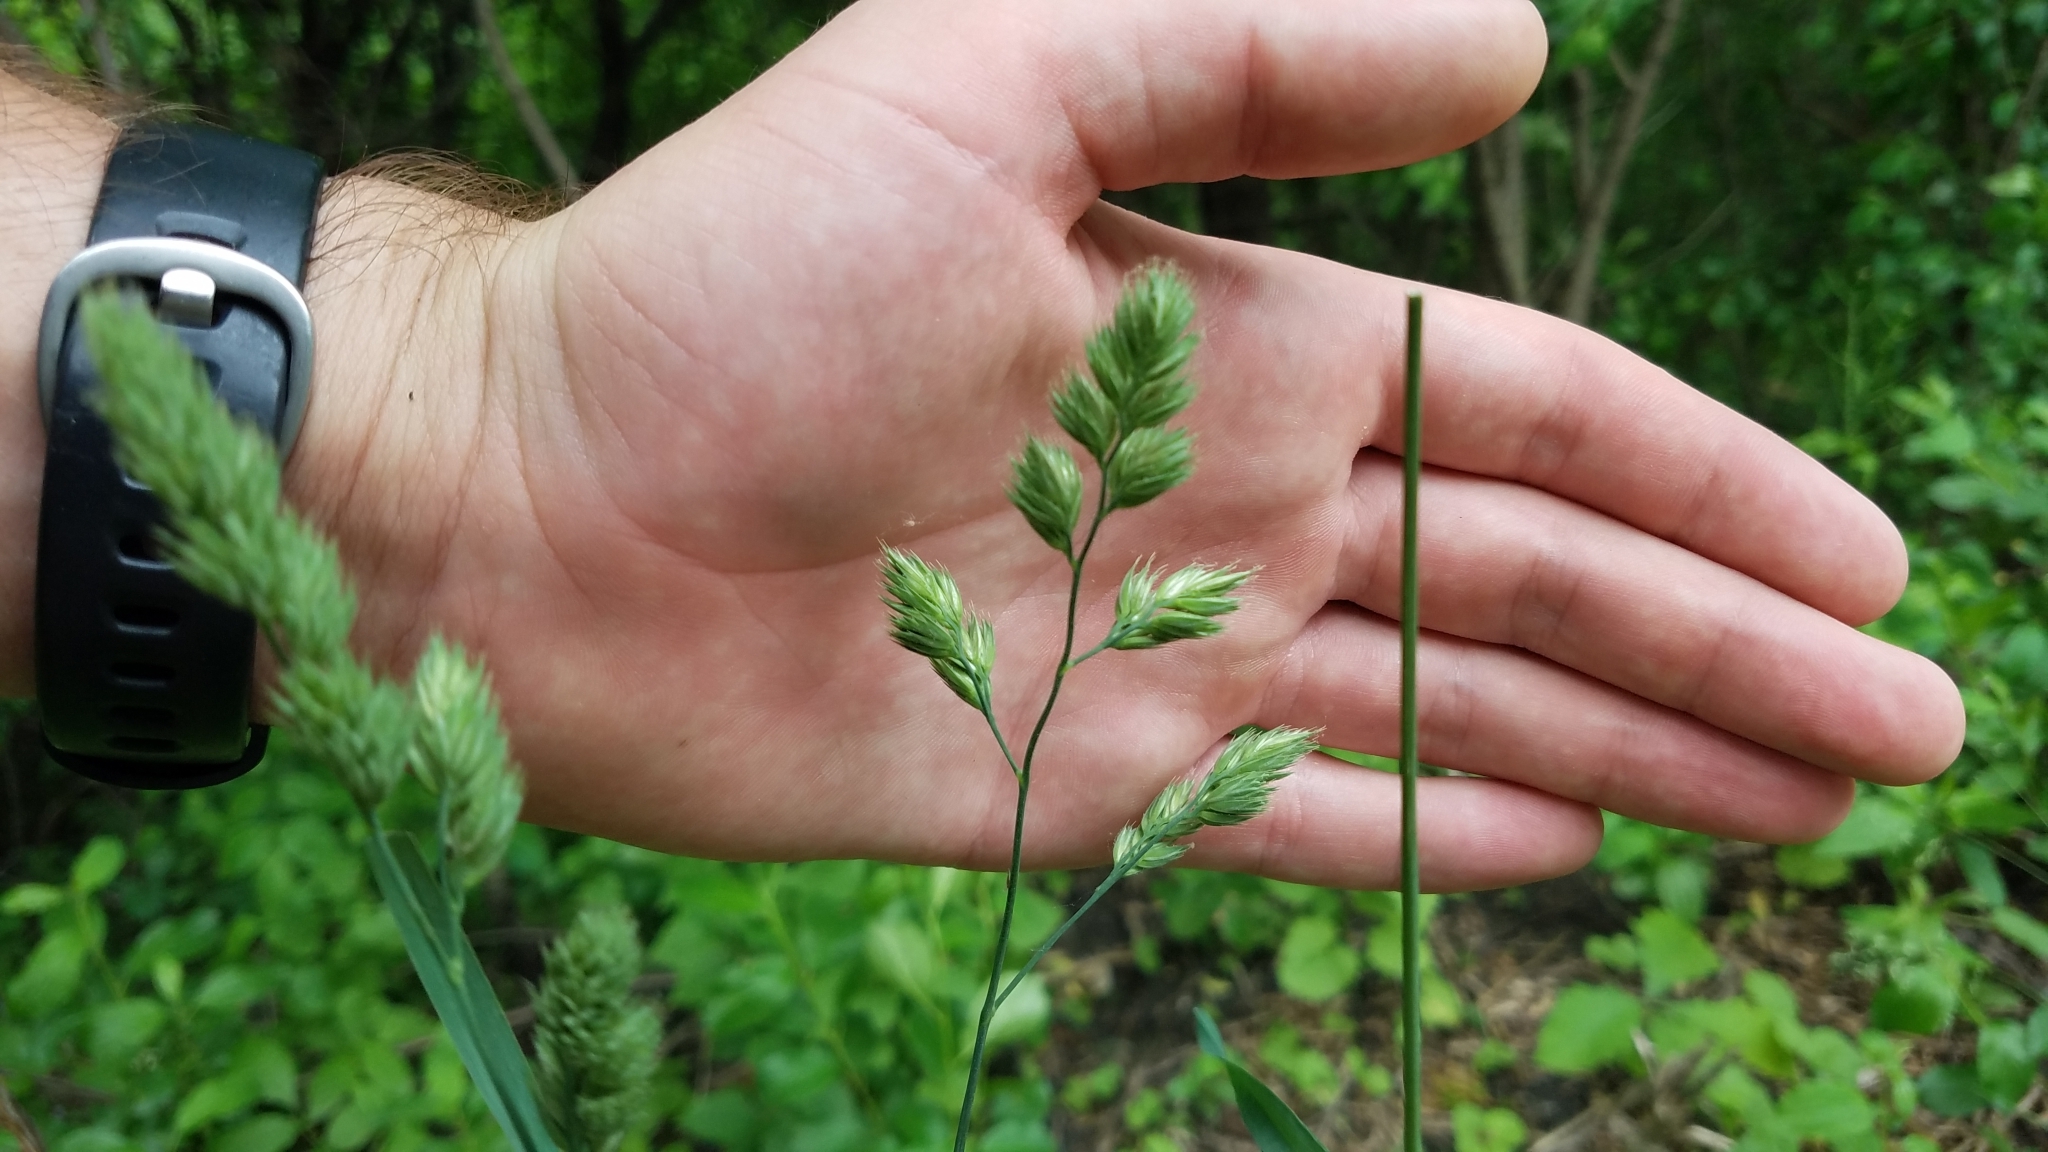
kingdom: Plantae
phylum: Tracheophyta
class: Liliopsida
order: Poales
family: Poaceae
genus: Dactylis
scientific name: Dactylis glomerata
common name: Orchardgrass
